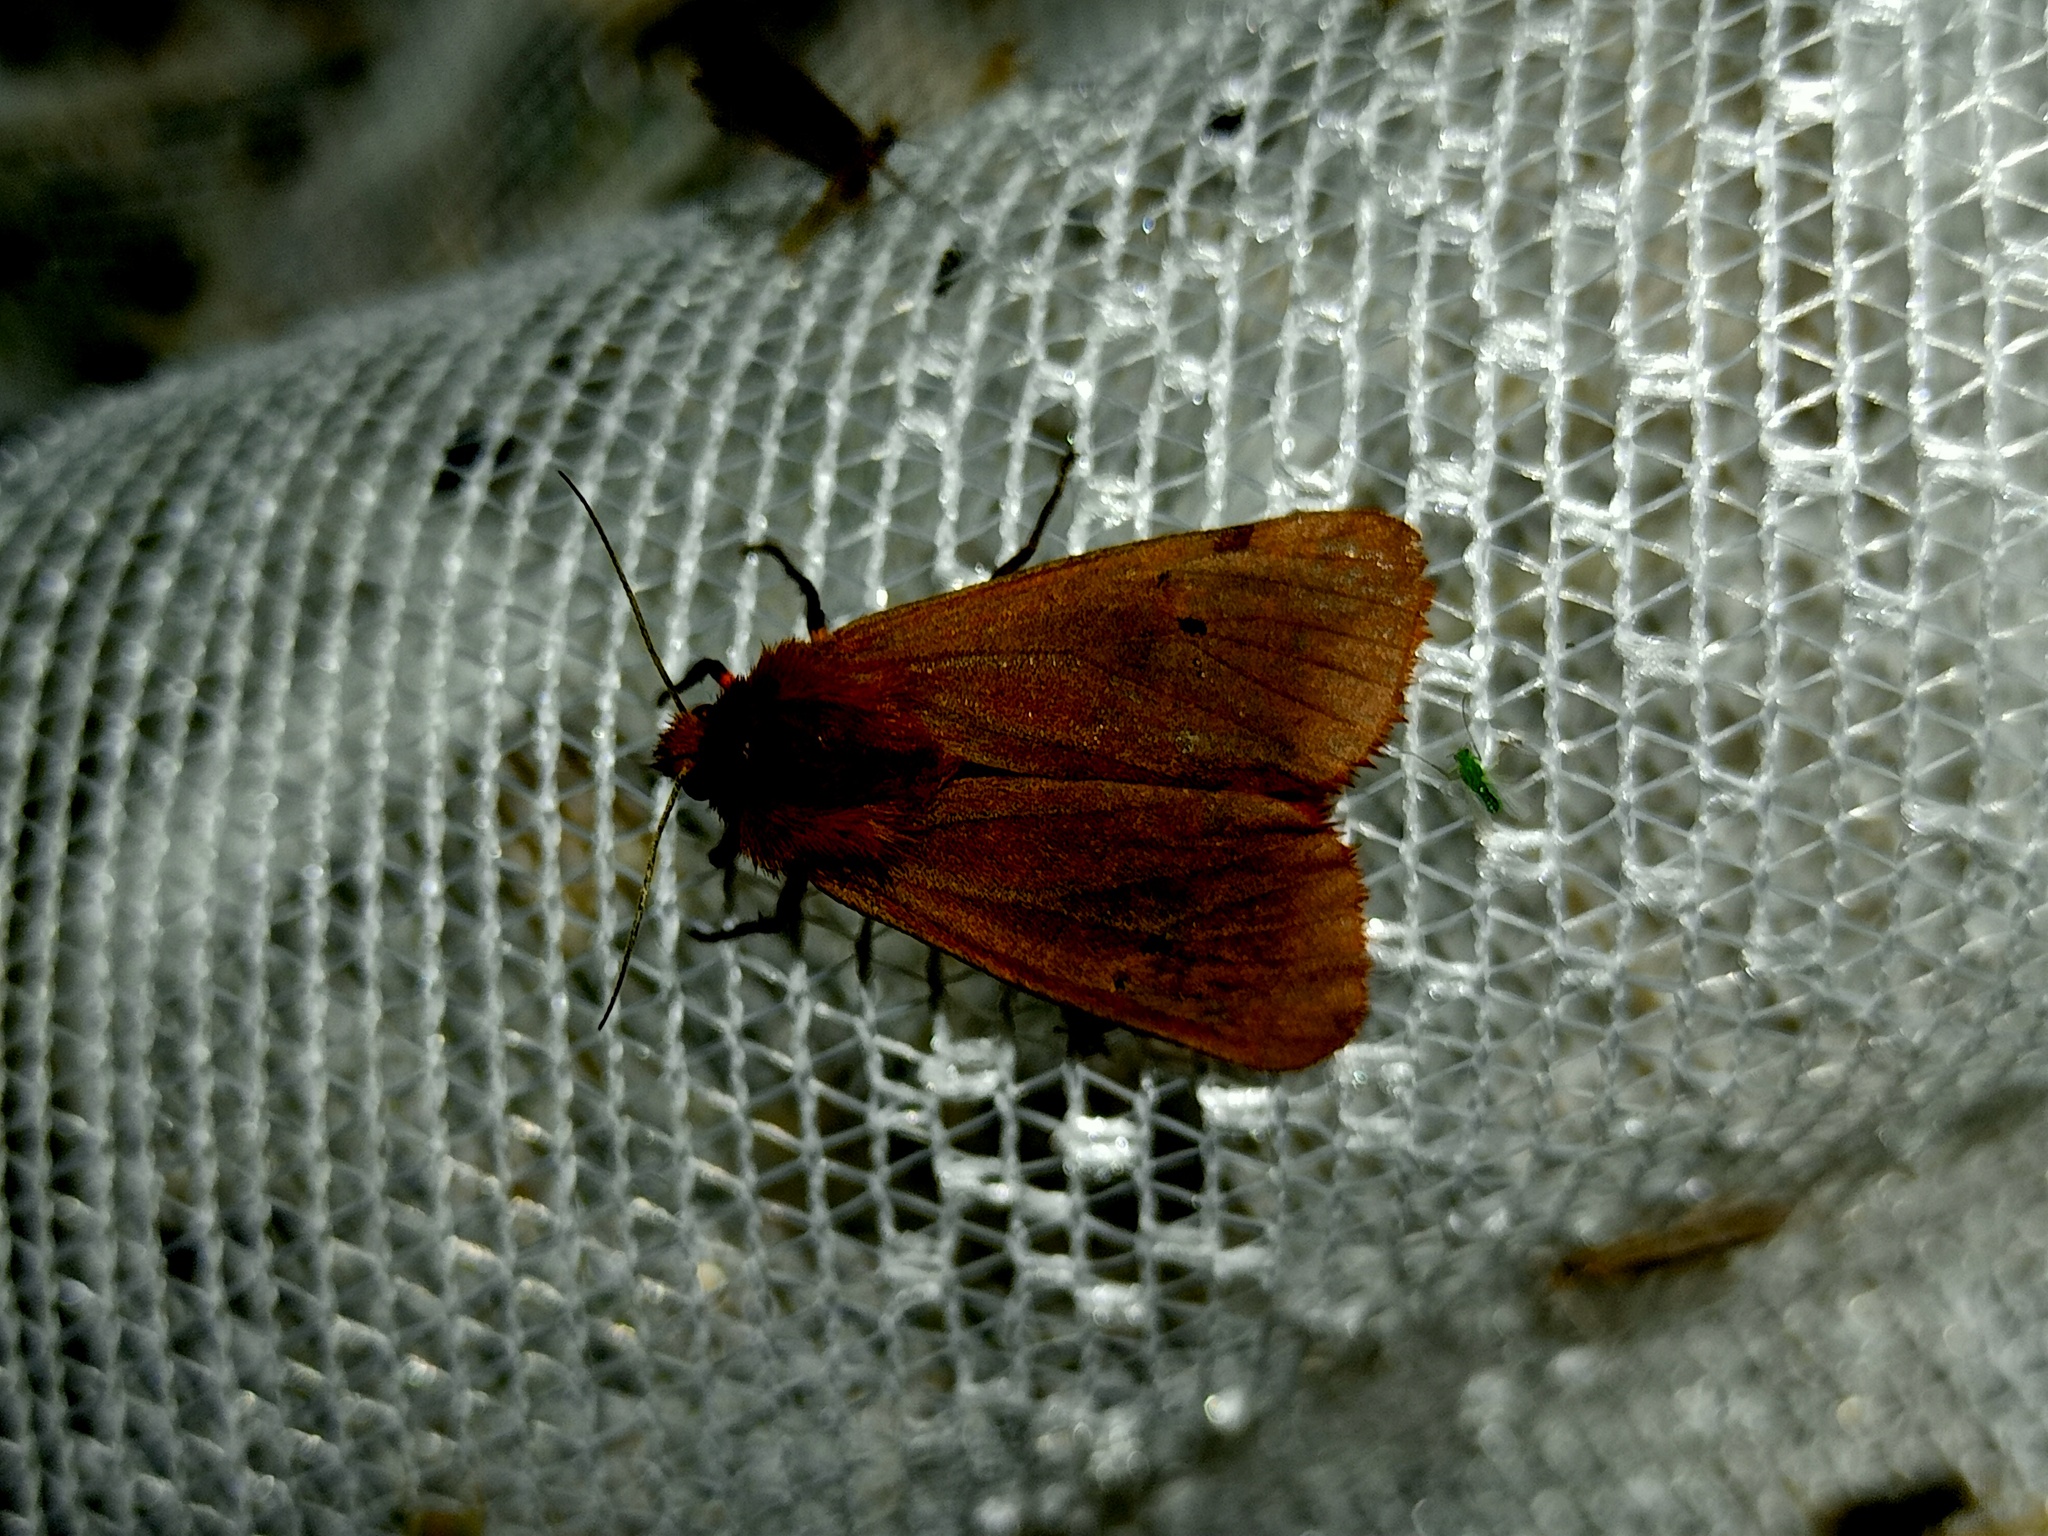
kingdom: Animalia
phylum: Arthropoda
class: Insecta
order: Lepidoptera
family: Erebidae
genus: Phragmatobia
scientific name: Phragmatobia fuliginosa
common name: Ruby tiger
